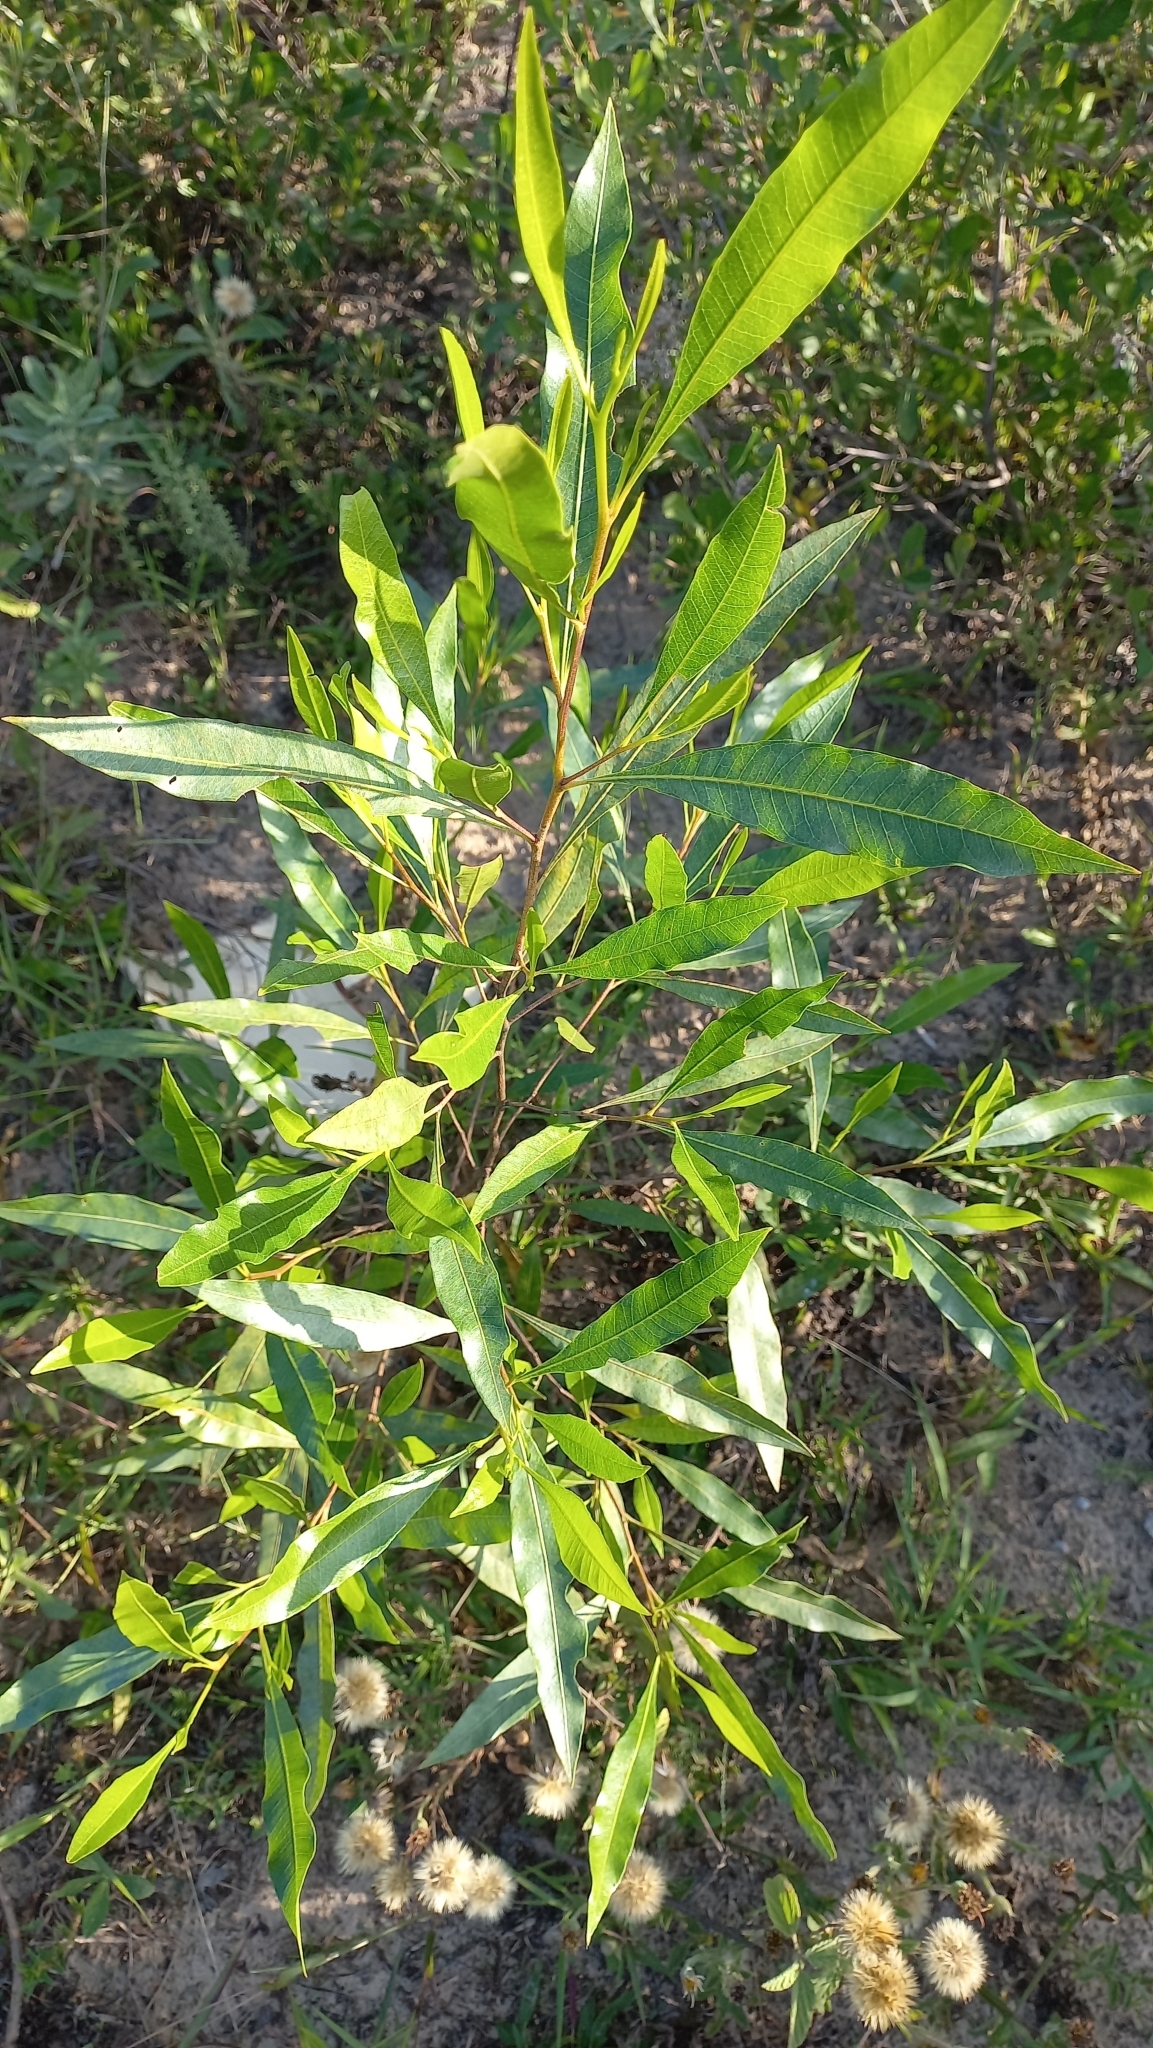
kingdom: Plantae
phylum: Tracheophyta
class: Magnoliopsida
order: Sapindales
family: Sapindaceae
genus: Dodonaea
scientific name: Dodonaea viscosa
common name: Hopbush
